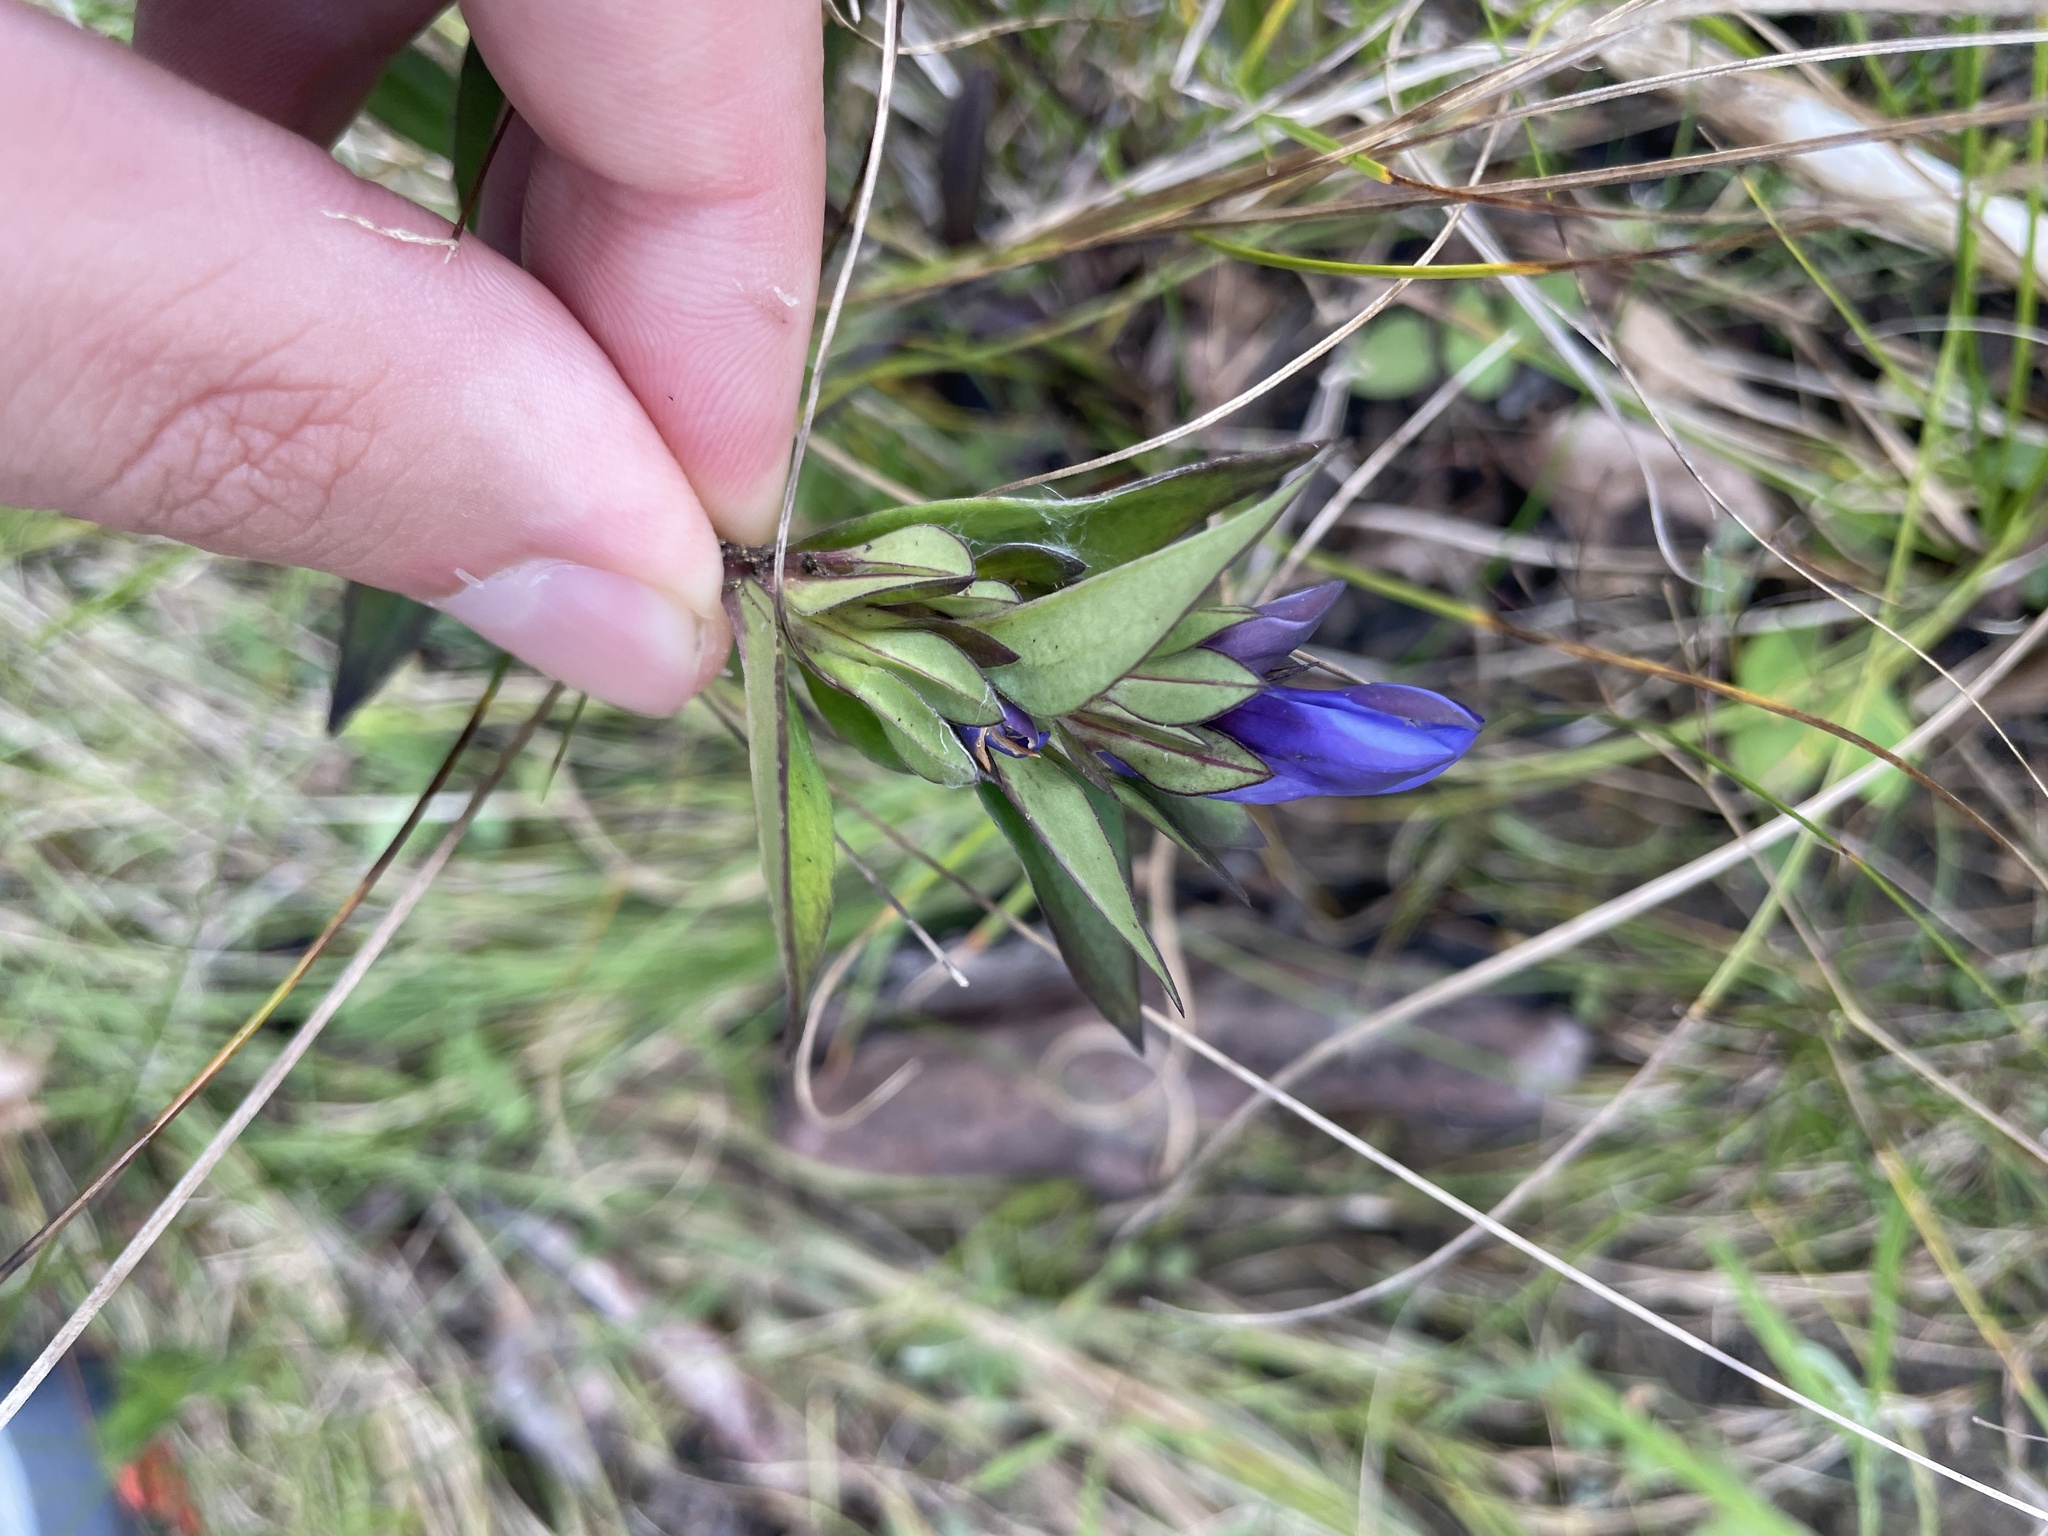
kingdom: Plantae
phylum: Tracheophyta
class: Magnoliopsida
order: Gentianales
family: Gentianaceae
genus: Gentiana
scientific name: Gentiana saponaria
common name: Soapwort gentian
